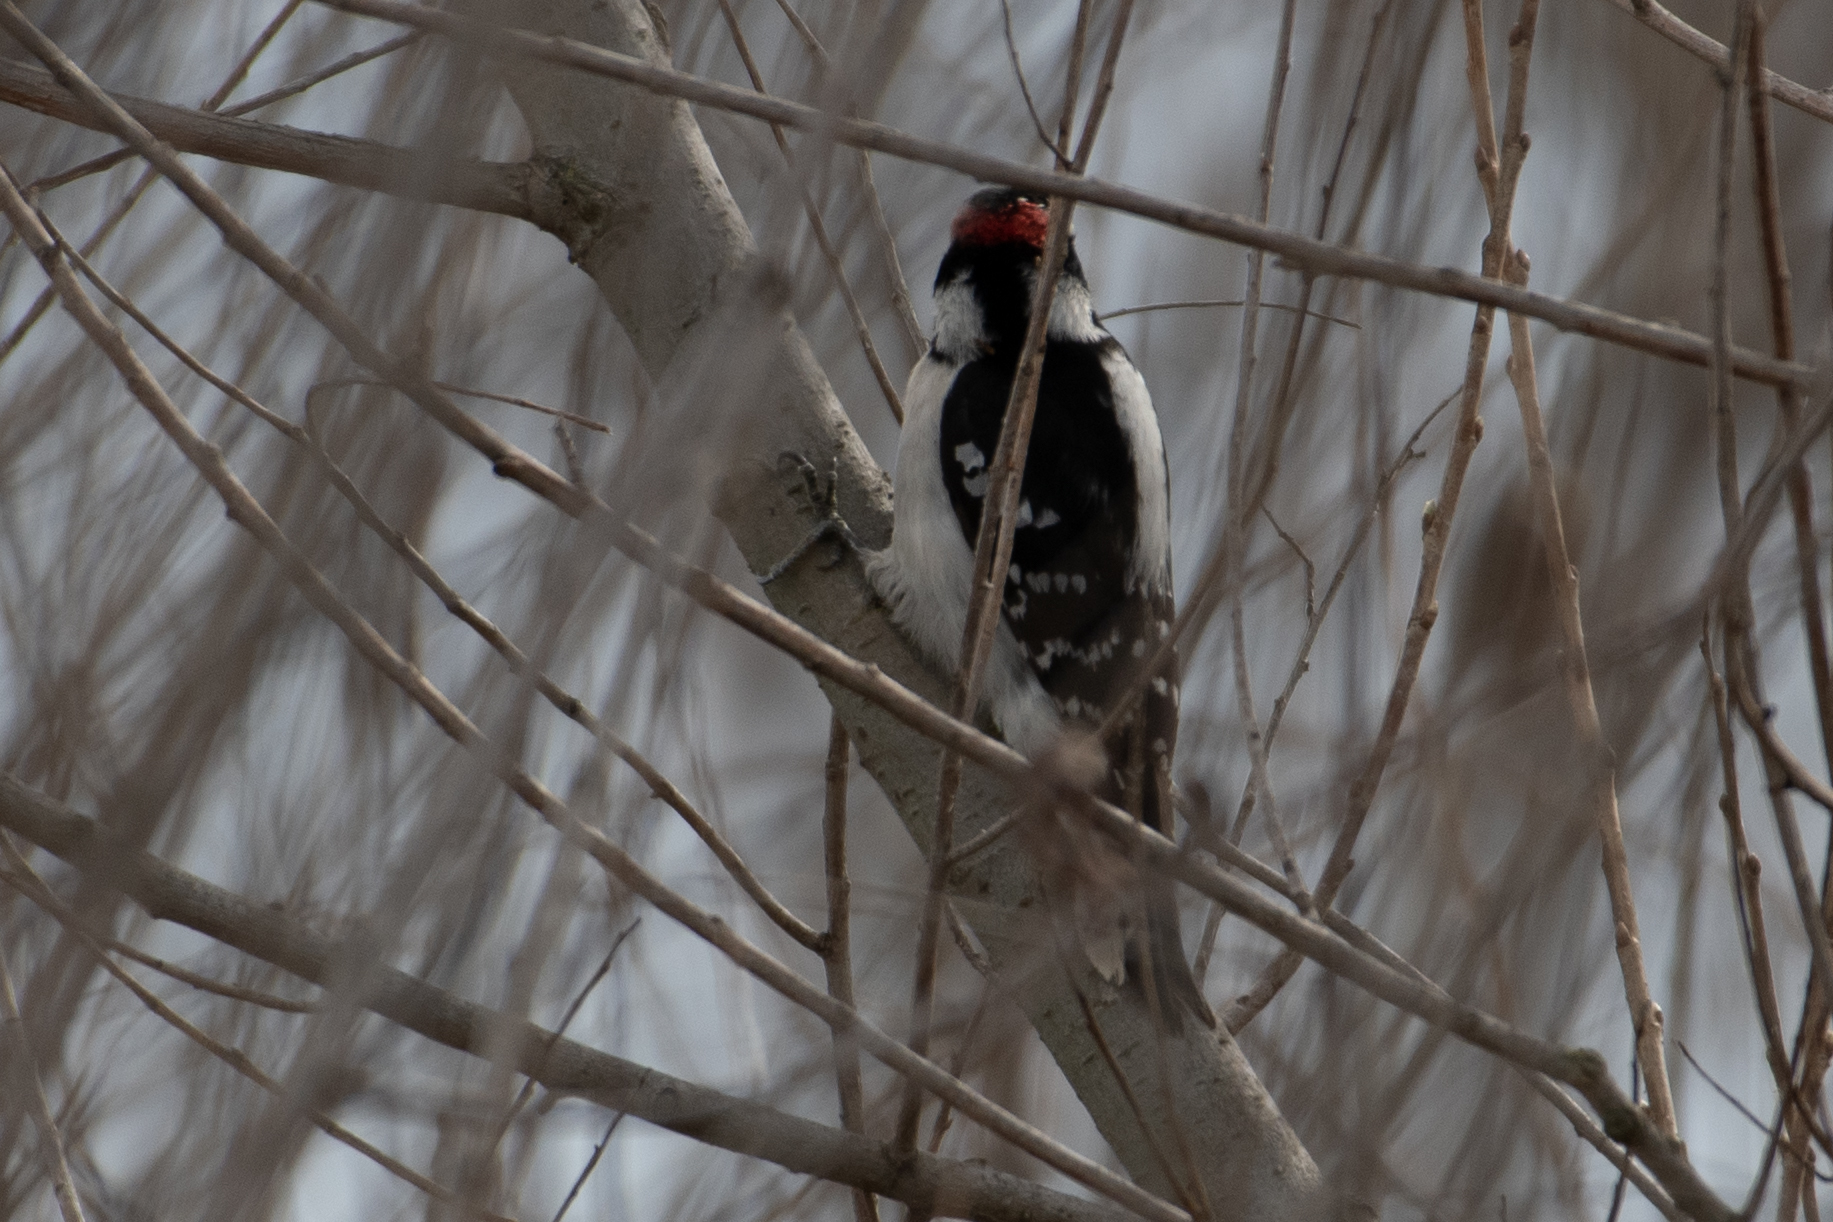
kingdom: Animalia
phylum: Chordata
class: Aves
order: Piciformes
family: Picidae
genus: Dryobates
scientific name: Dryobates pubescens
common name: Downy woodpecker
